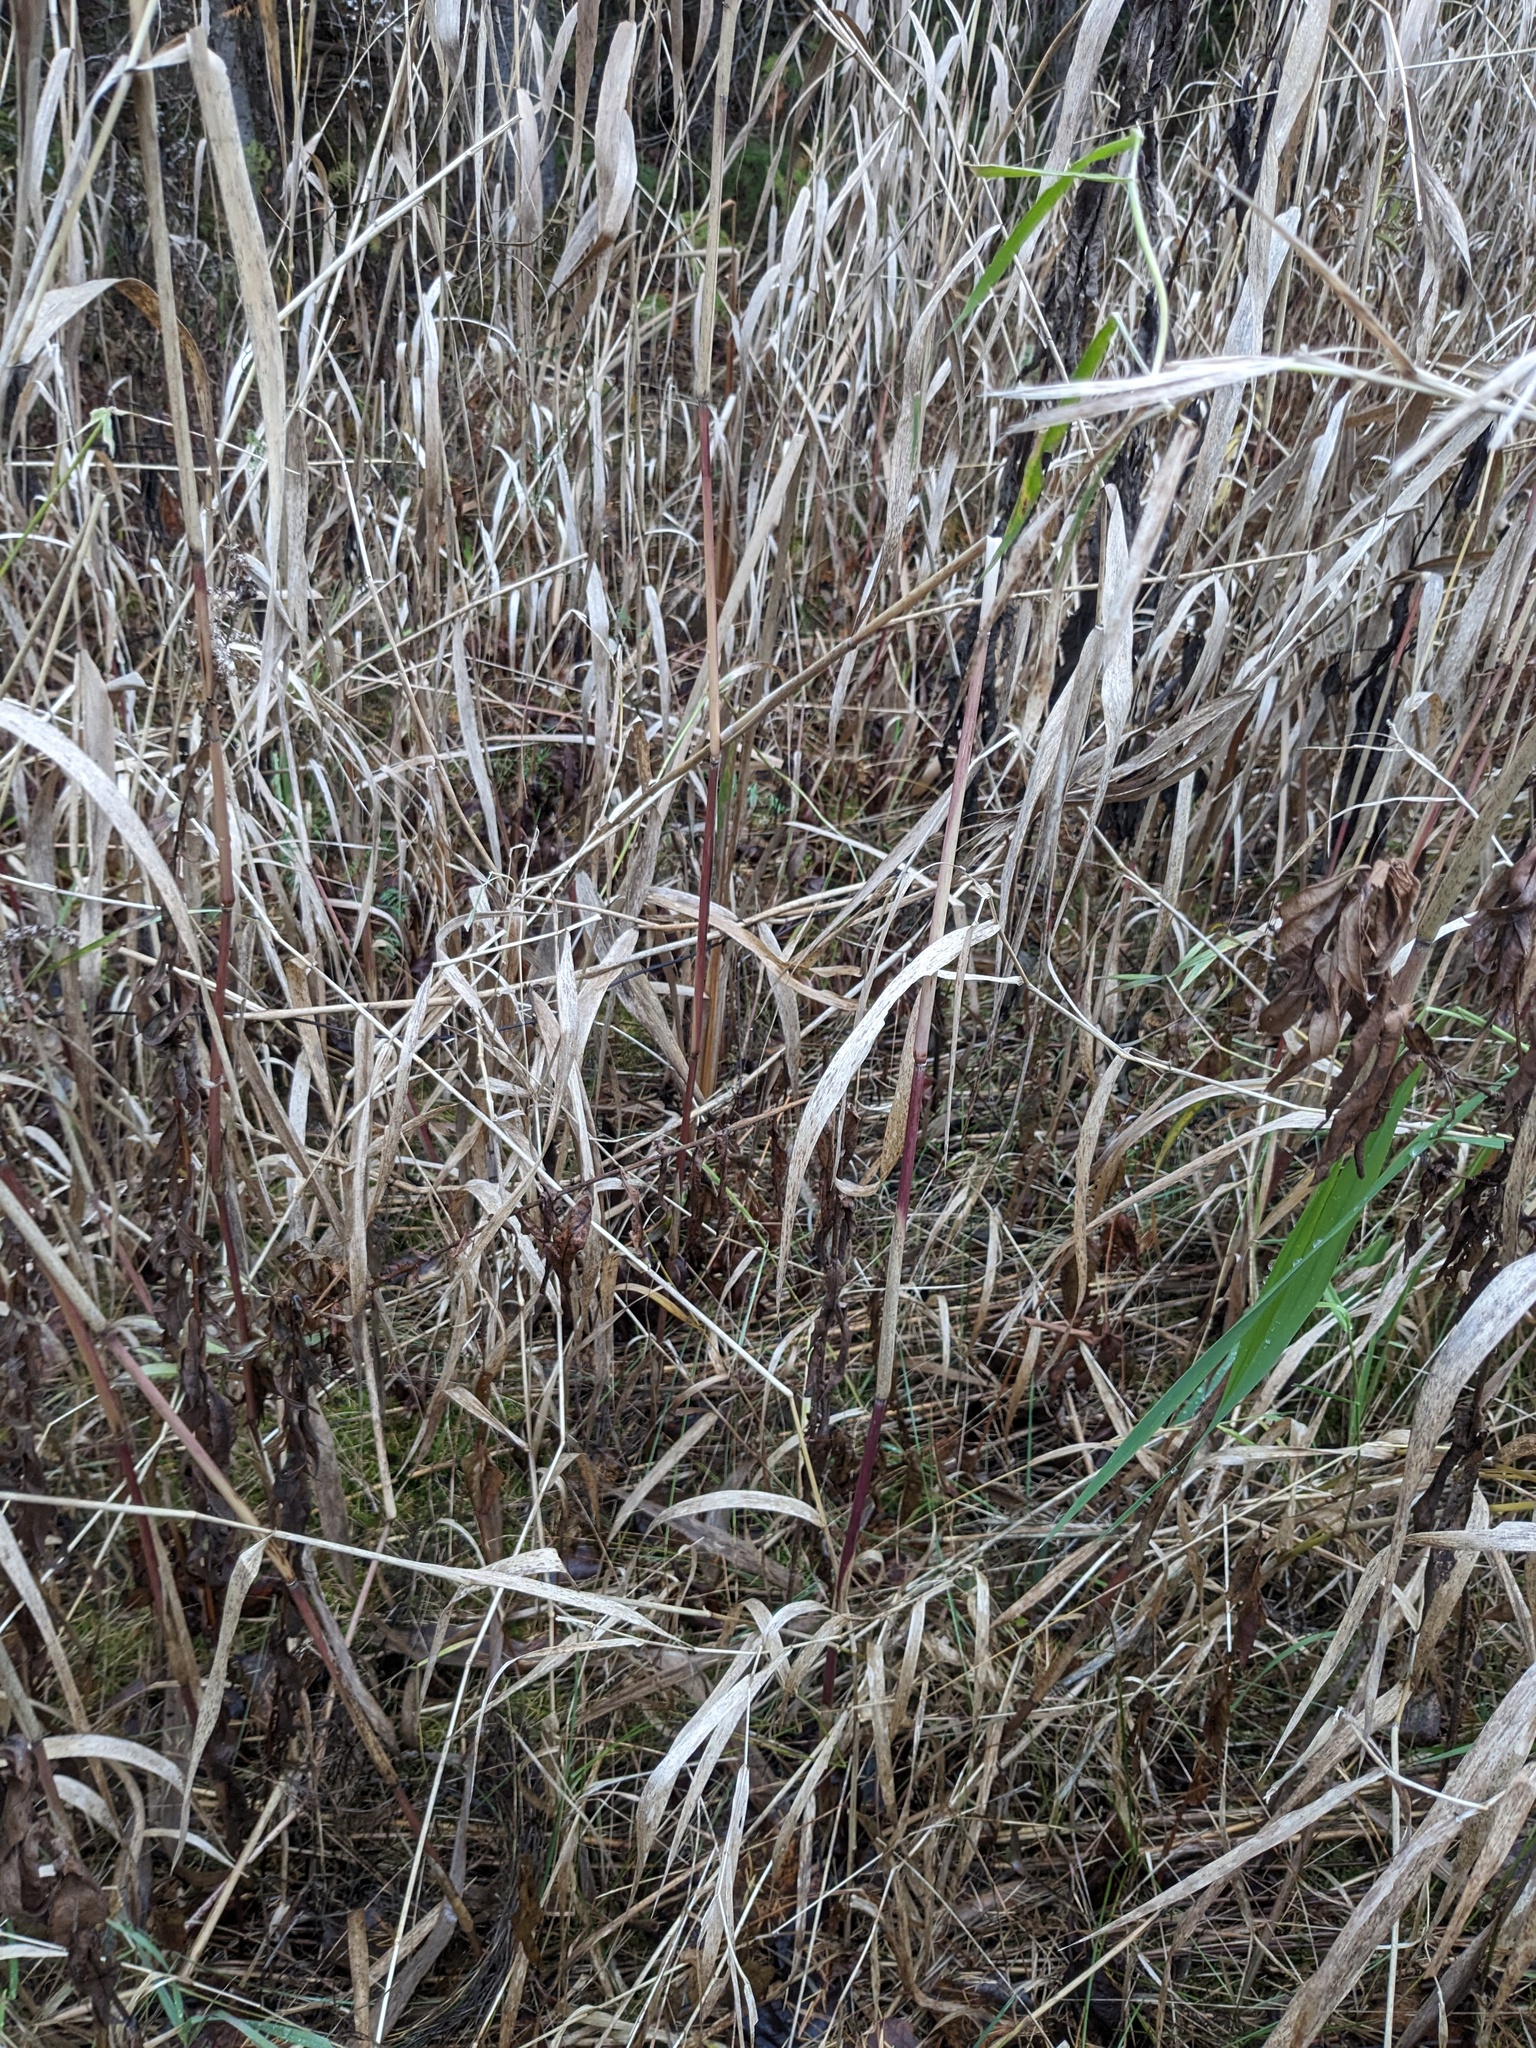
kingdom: Plantae
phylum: Tracheophyta
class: Liliopsida
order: Poales
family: Poaceae
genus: Phragmites
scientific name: Phragmites australis
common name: Common reed
